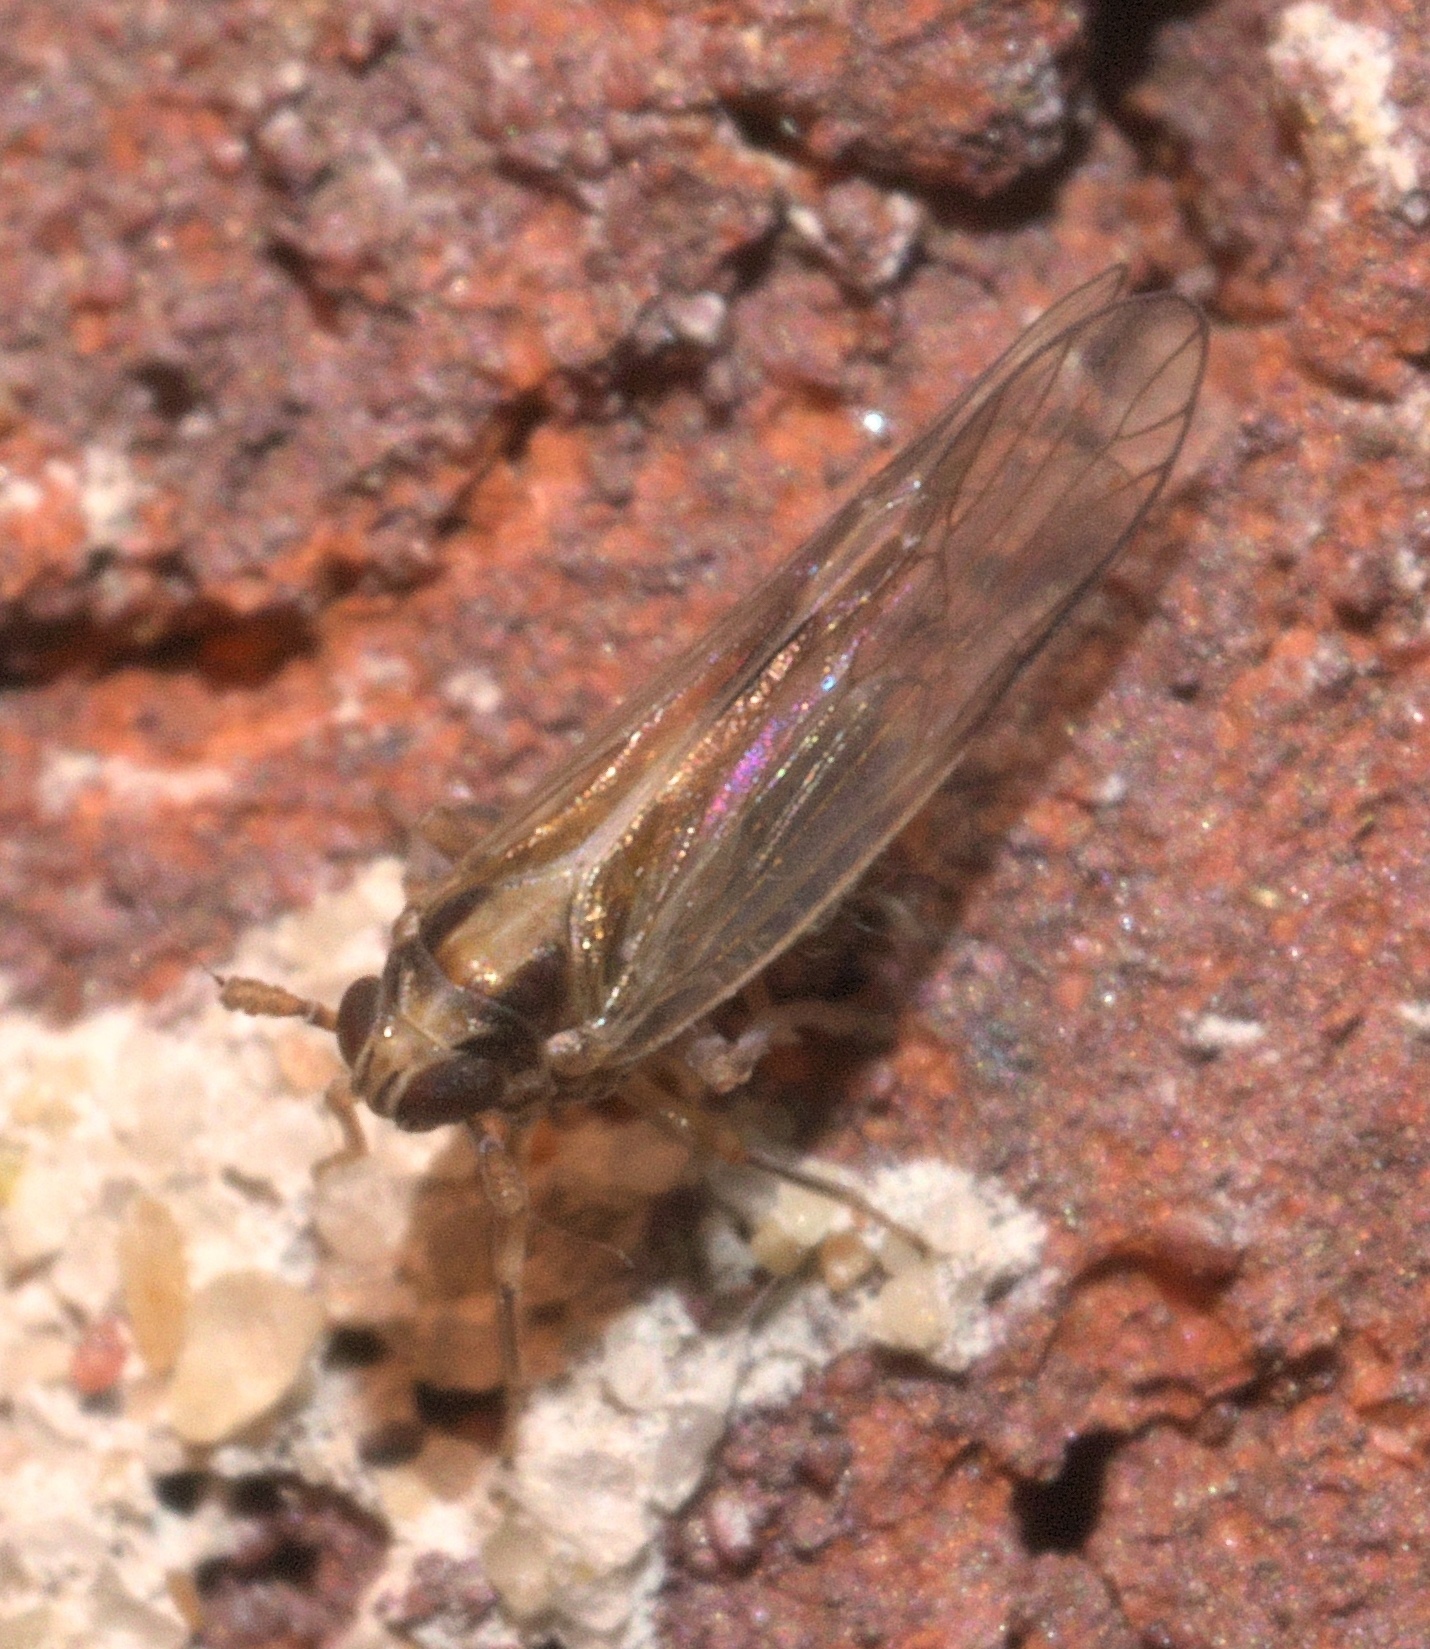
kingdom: Animalia
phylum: Arthropoda
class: Insecta
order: Hemiptera
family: Delphacidae
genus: Muellerianella
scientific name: Muellerianella laminalis
